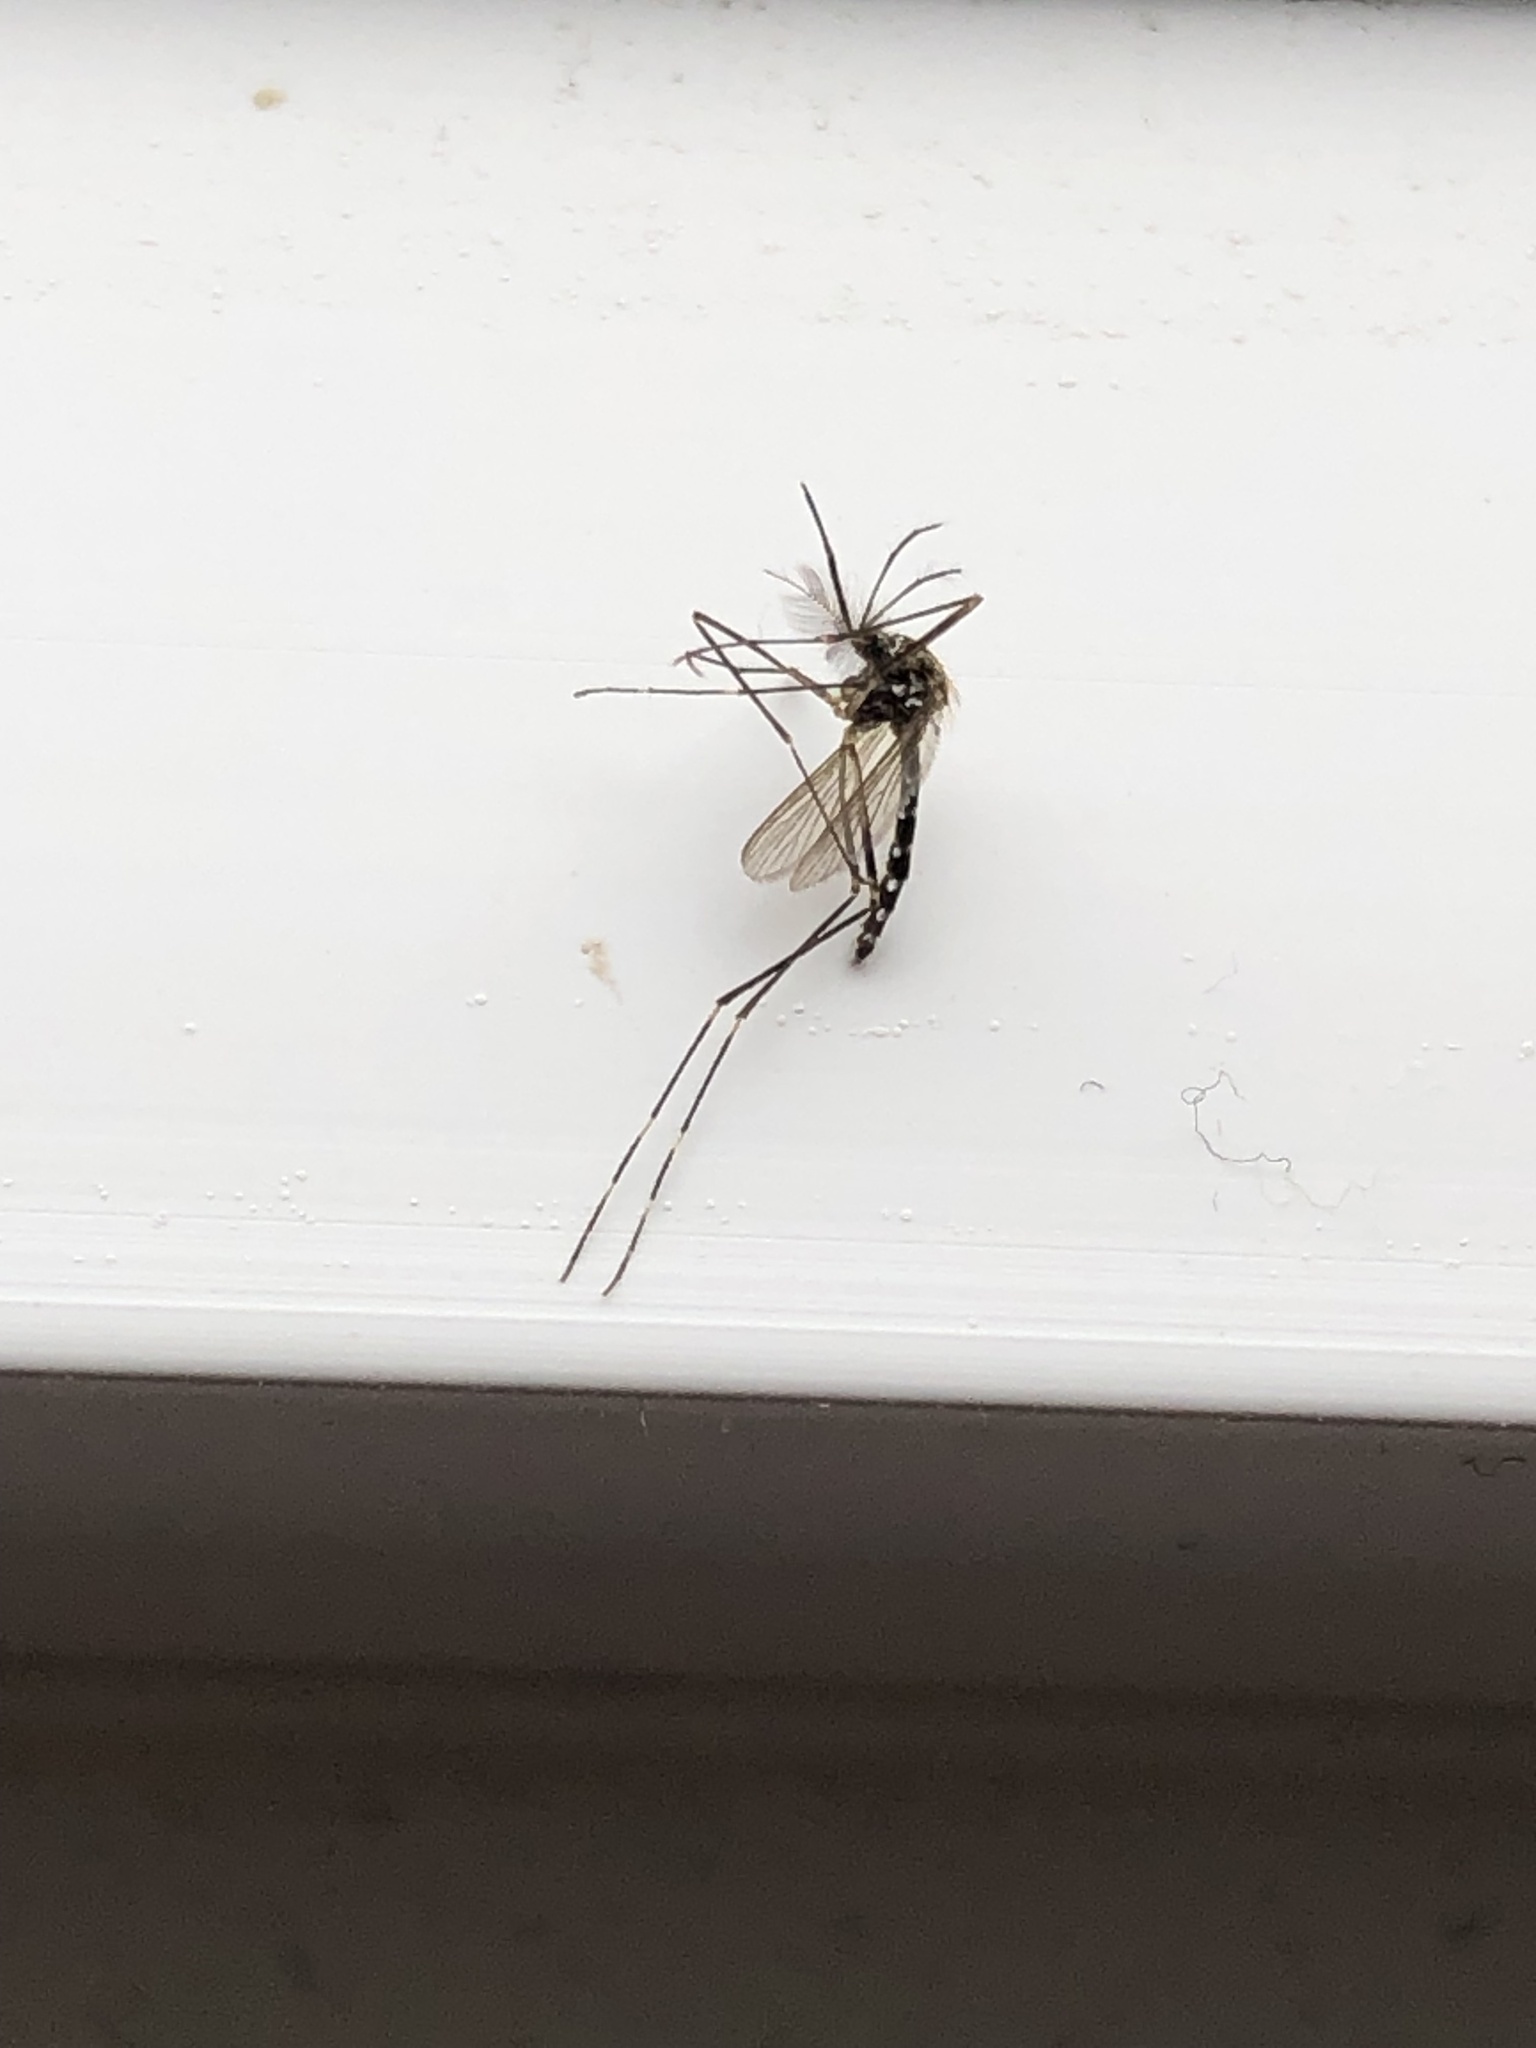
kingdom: Animalia
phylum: Arthropoda
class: Insecta
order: Diptera
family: Culicidae
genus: Aedes
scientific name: Aedes japonicus
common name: Asian bush mosquito
